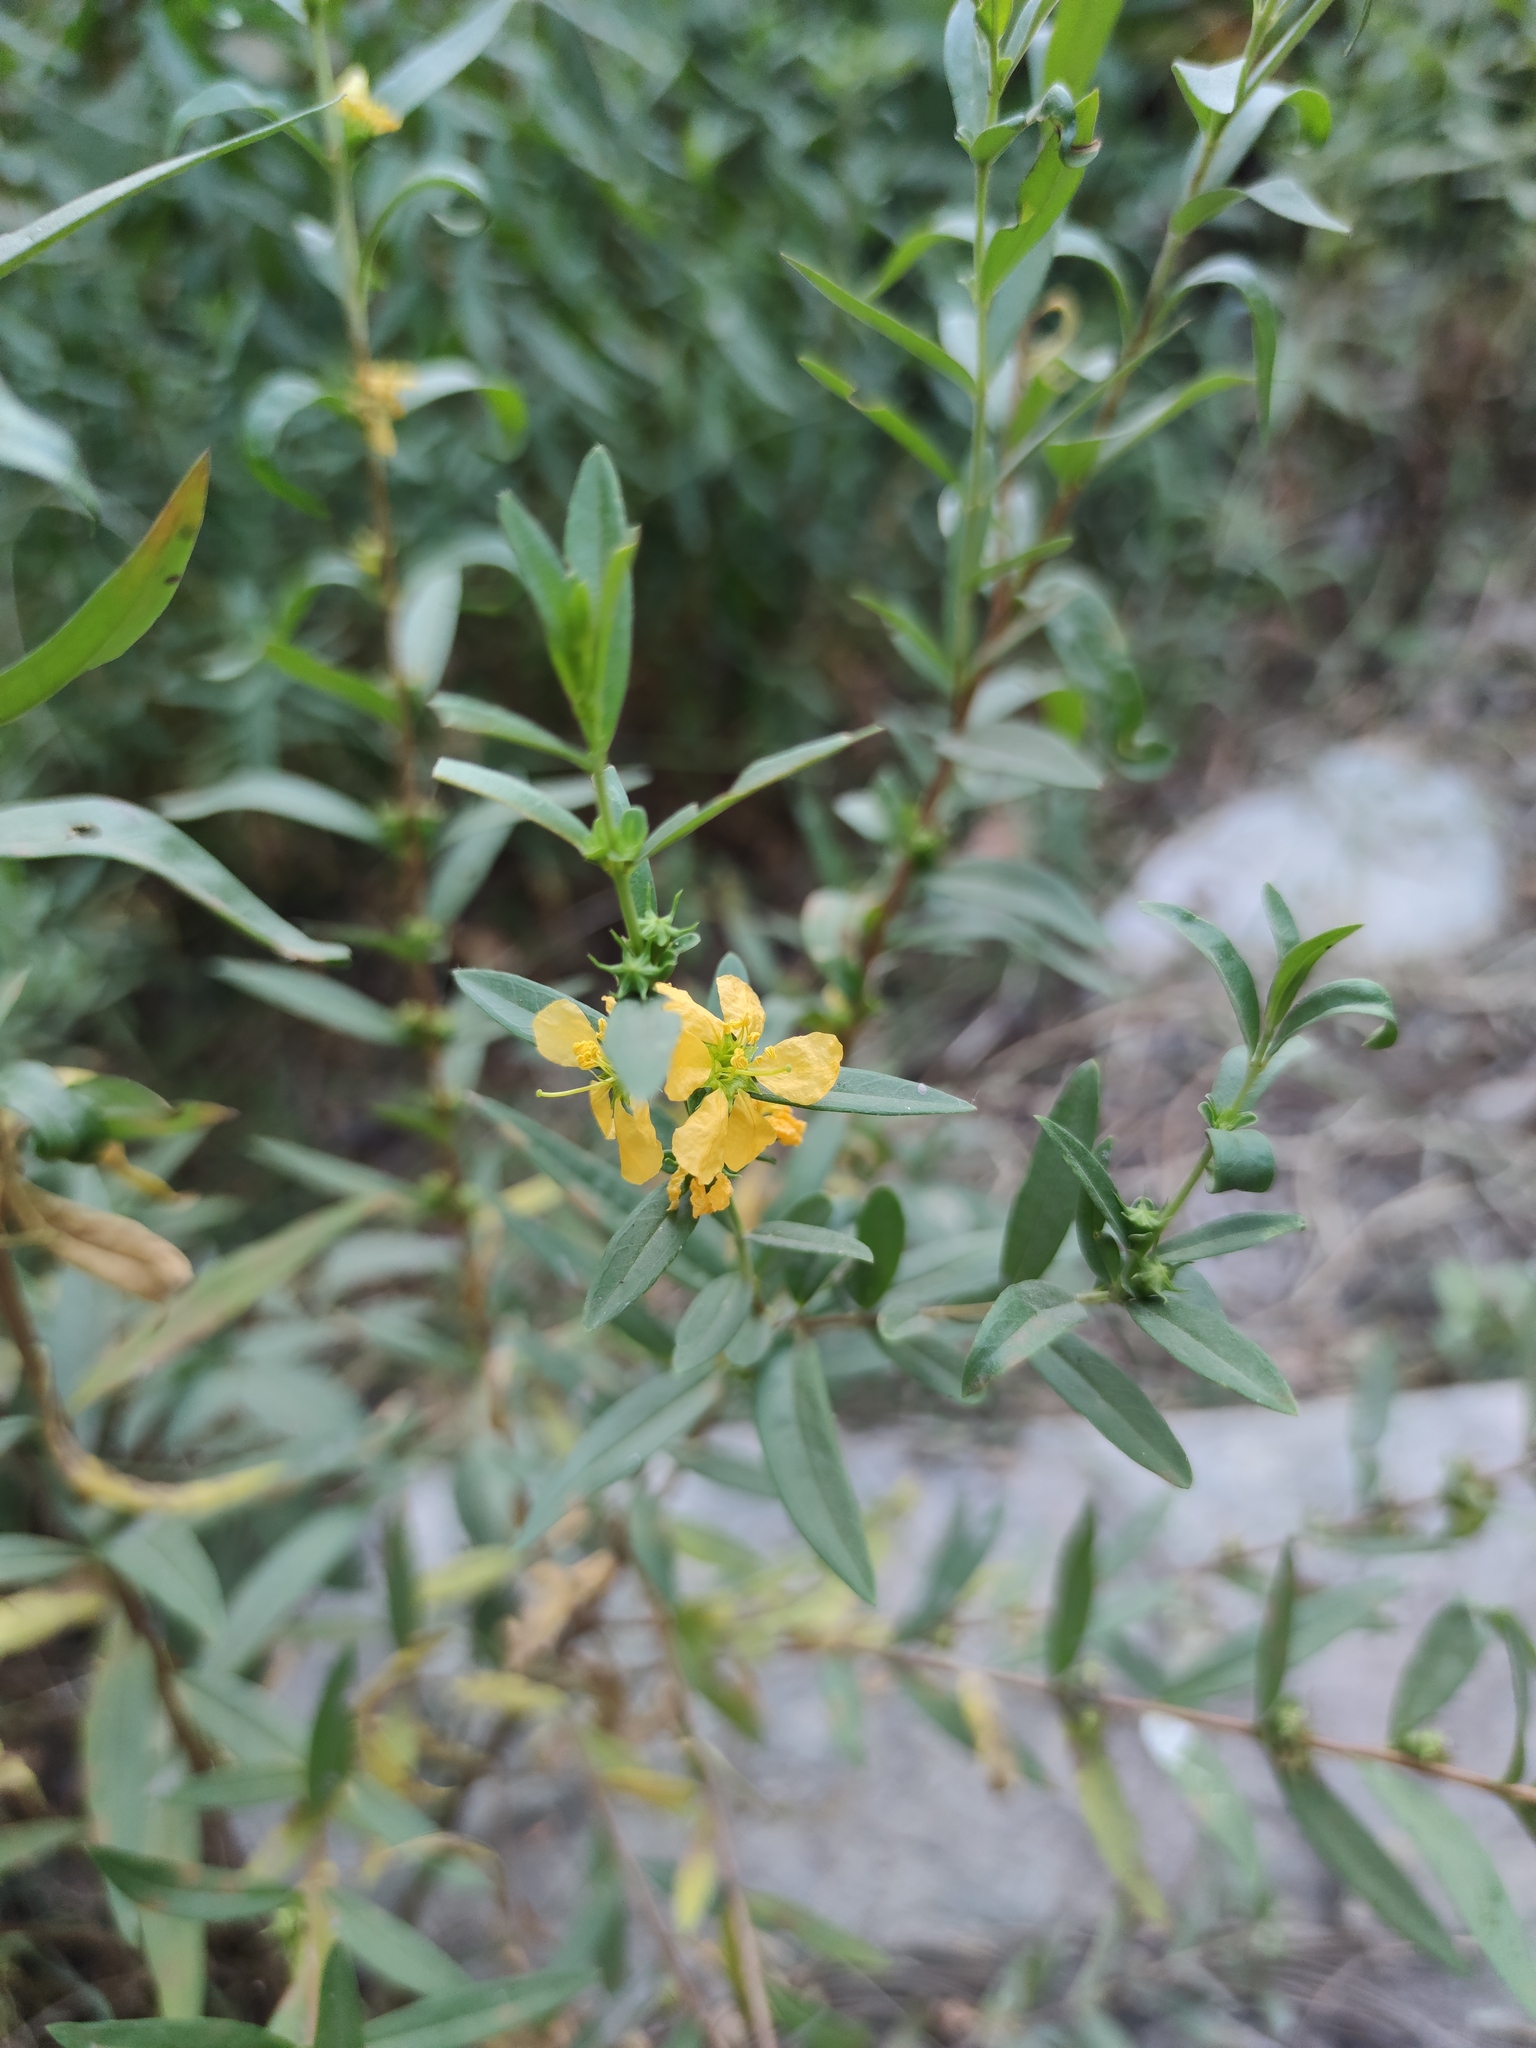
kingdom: Plantae
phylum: Tracheophyta
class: Magnoliopsida
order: Myrtales
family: Lythraceae
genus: Heimia
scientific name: Heimia salicifolia
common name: Willow-leaf heimia
